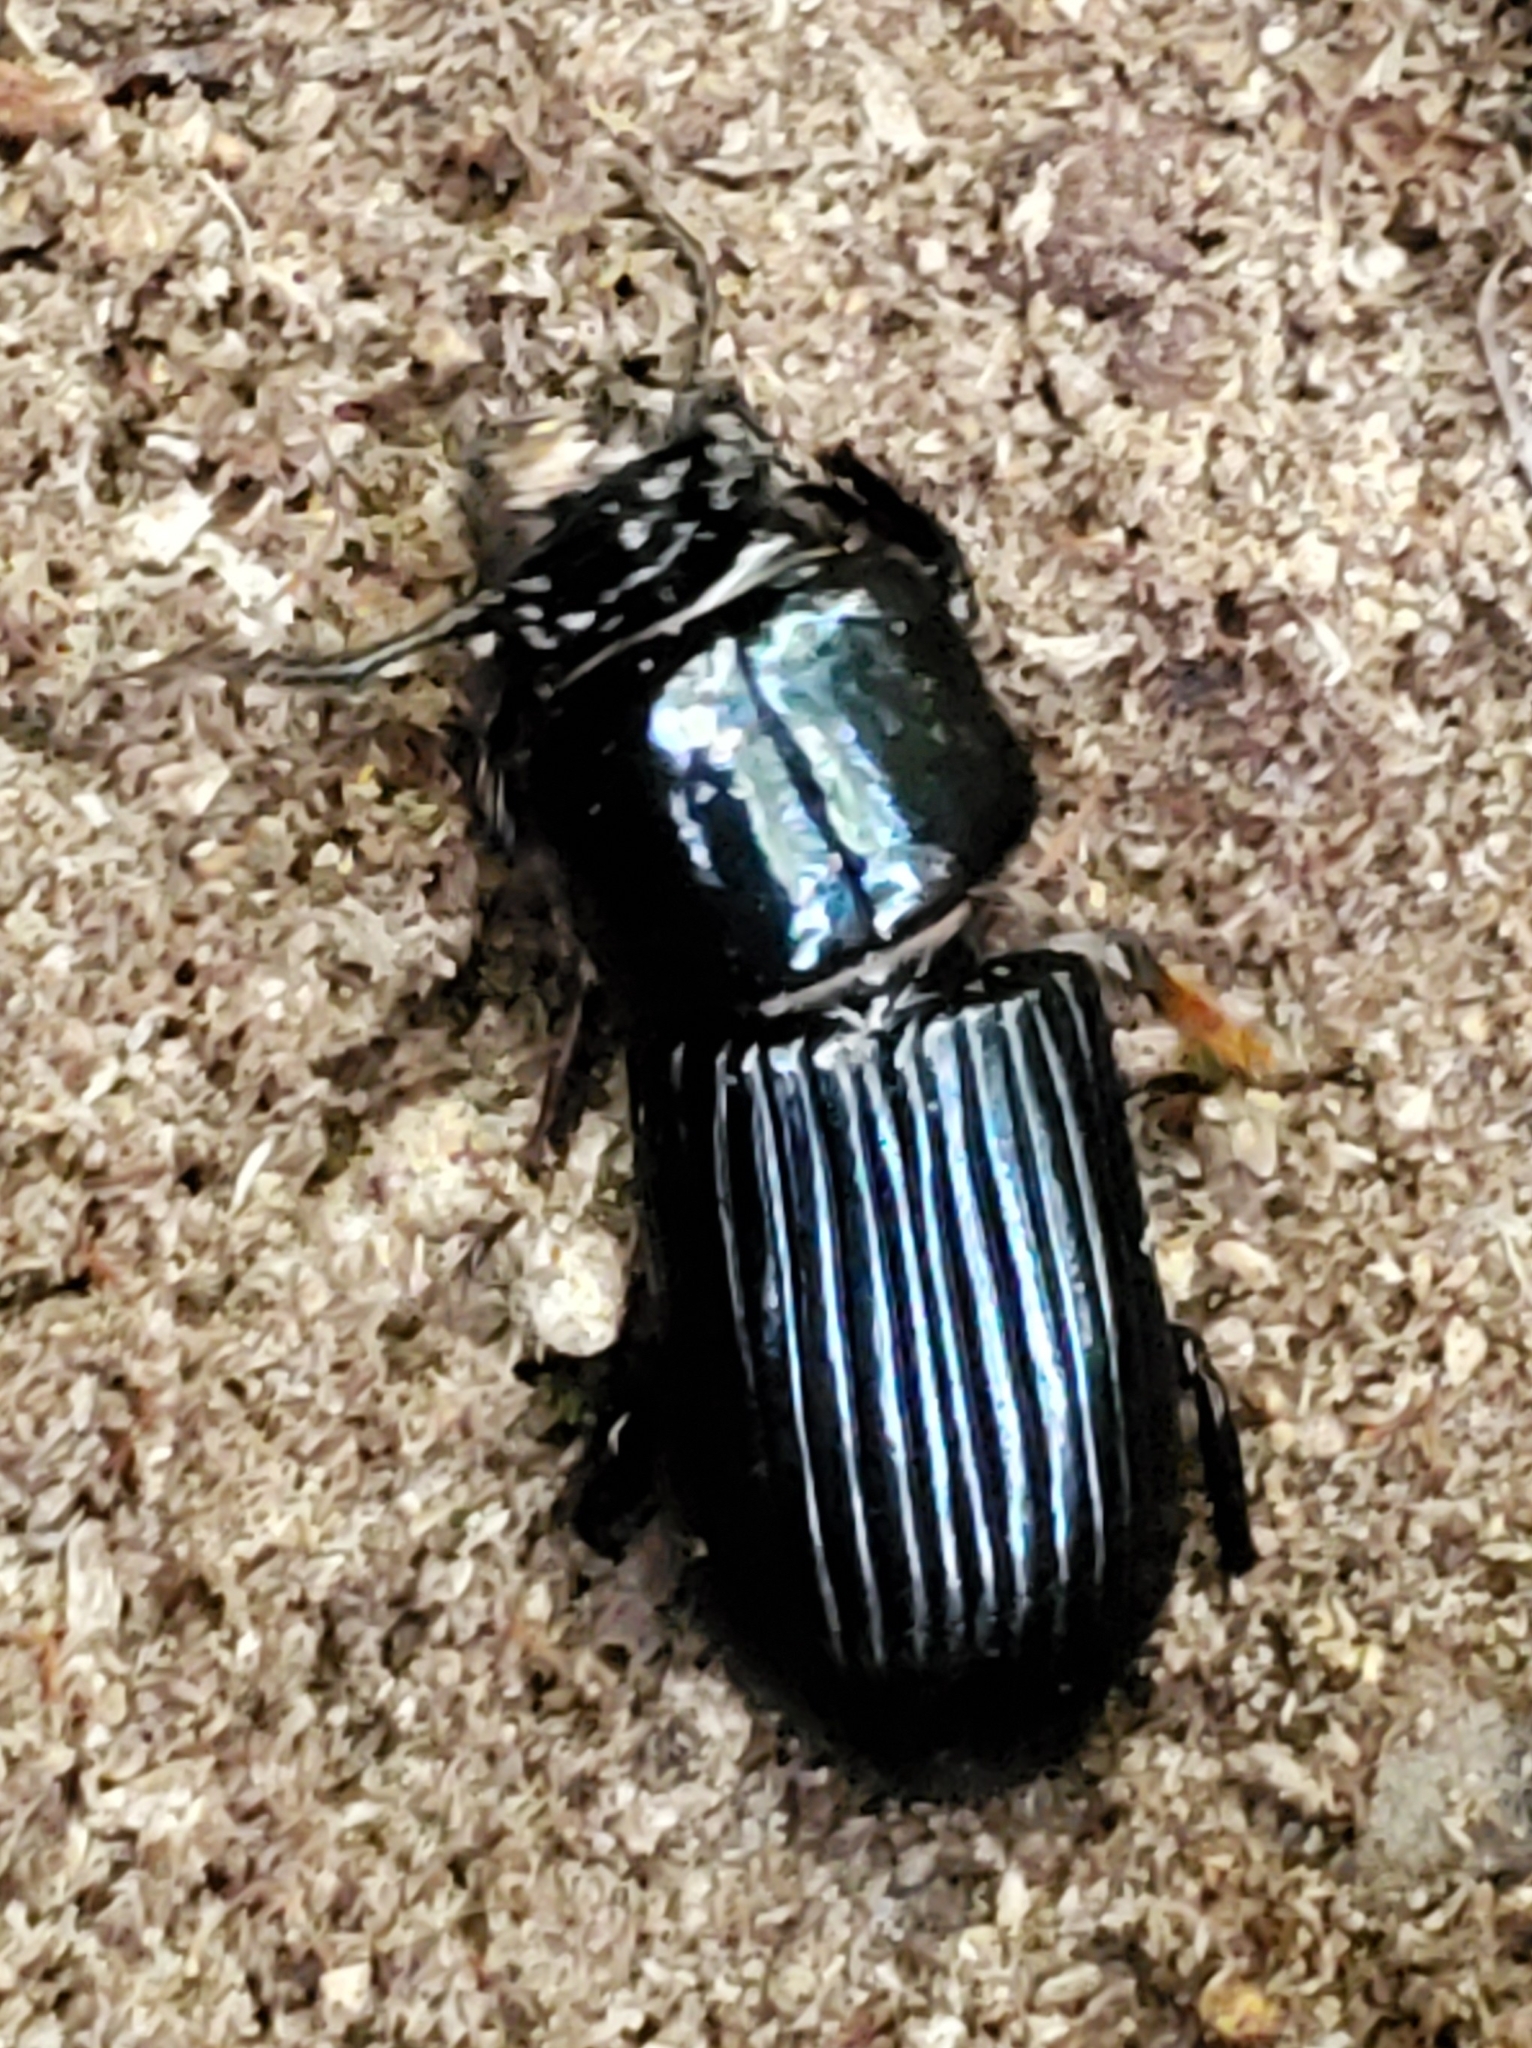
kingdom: Animalia
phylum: Arthropoda
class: Arachnida
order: Mesostigmata
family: Megisthanidae
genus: Megisthanus
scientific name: Megisthanus
